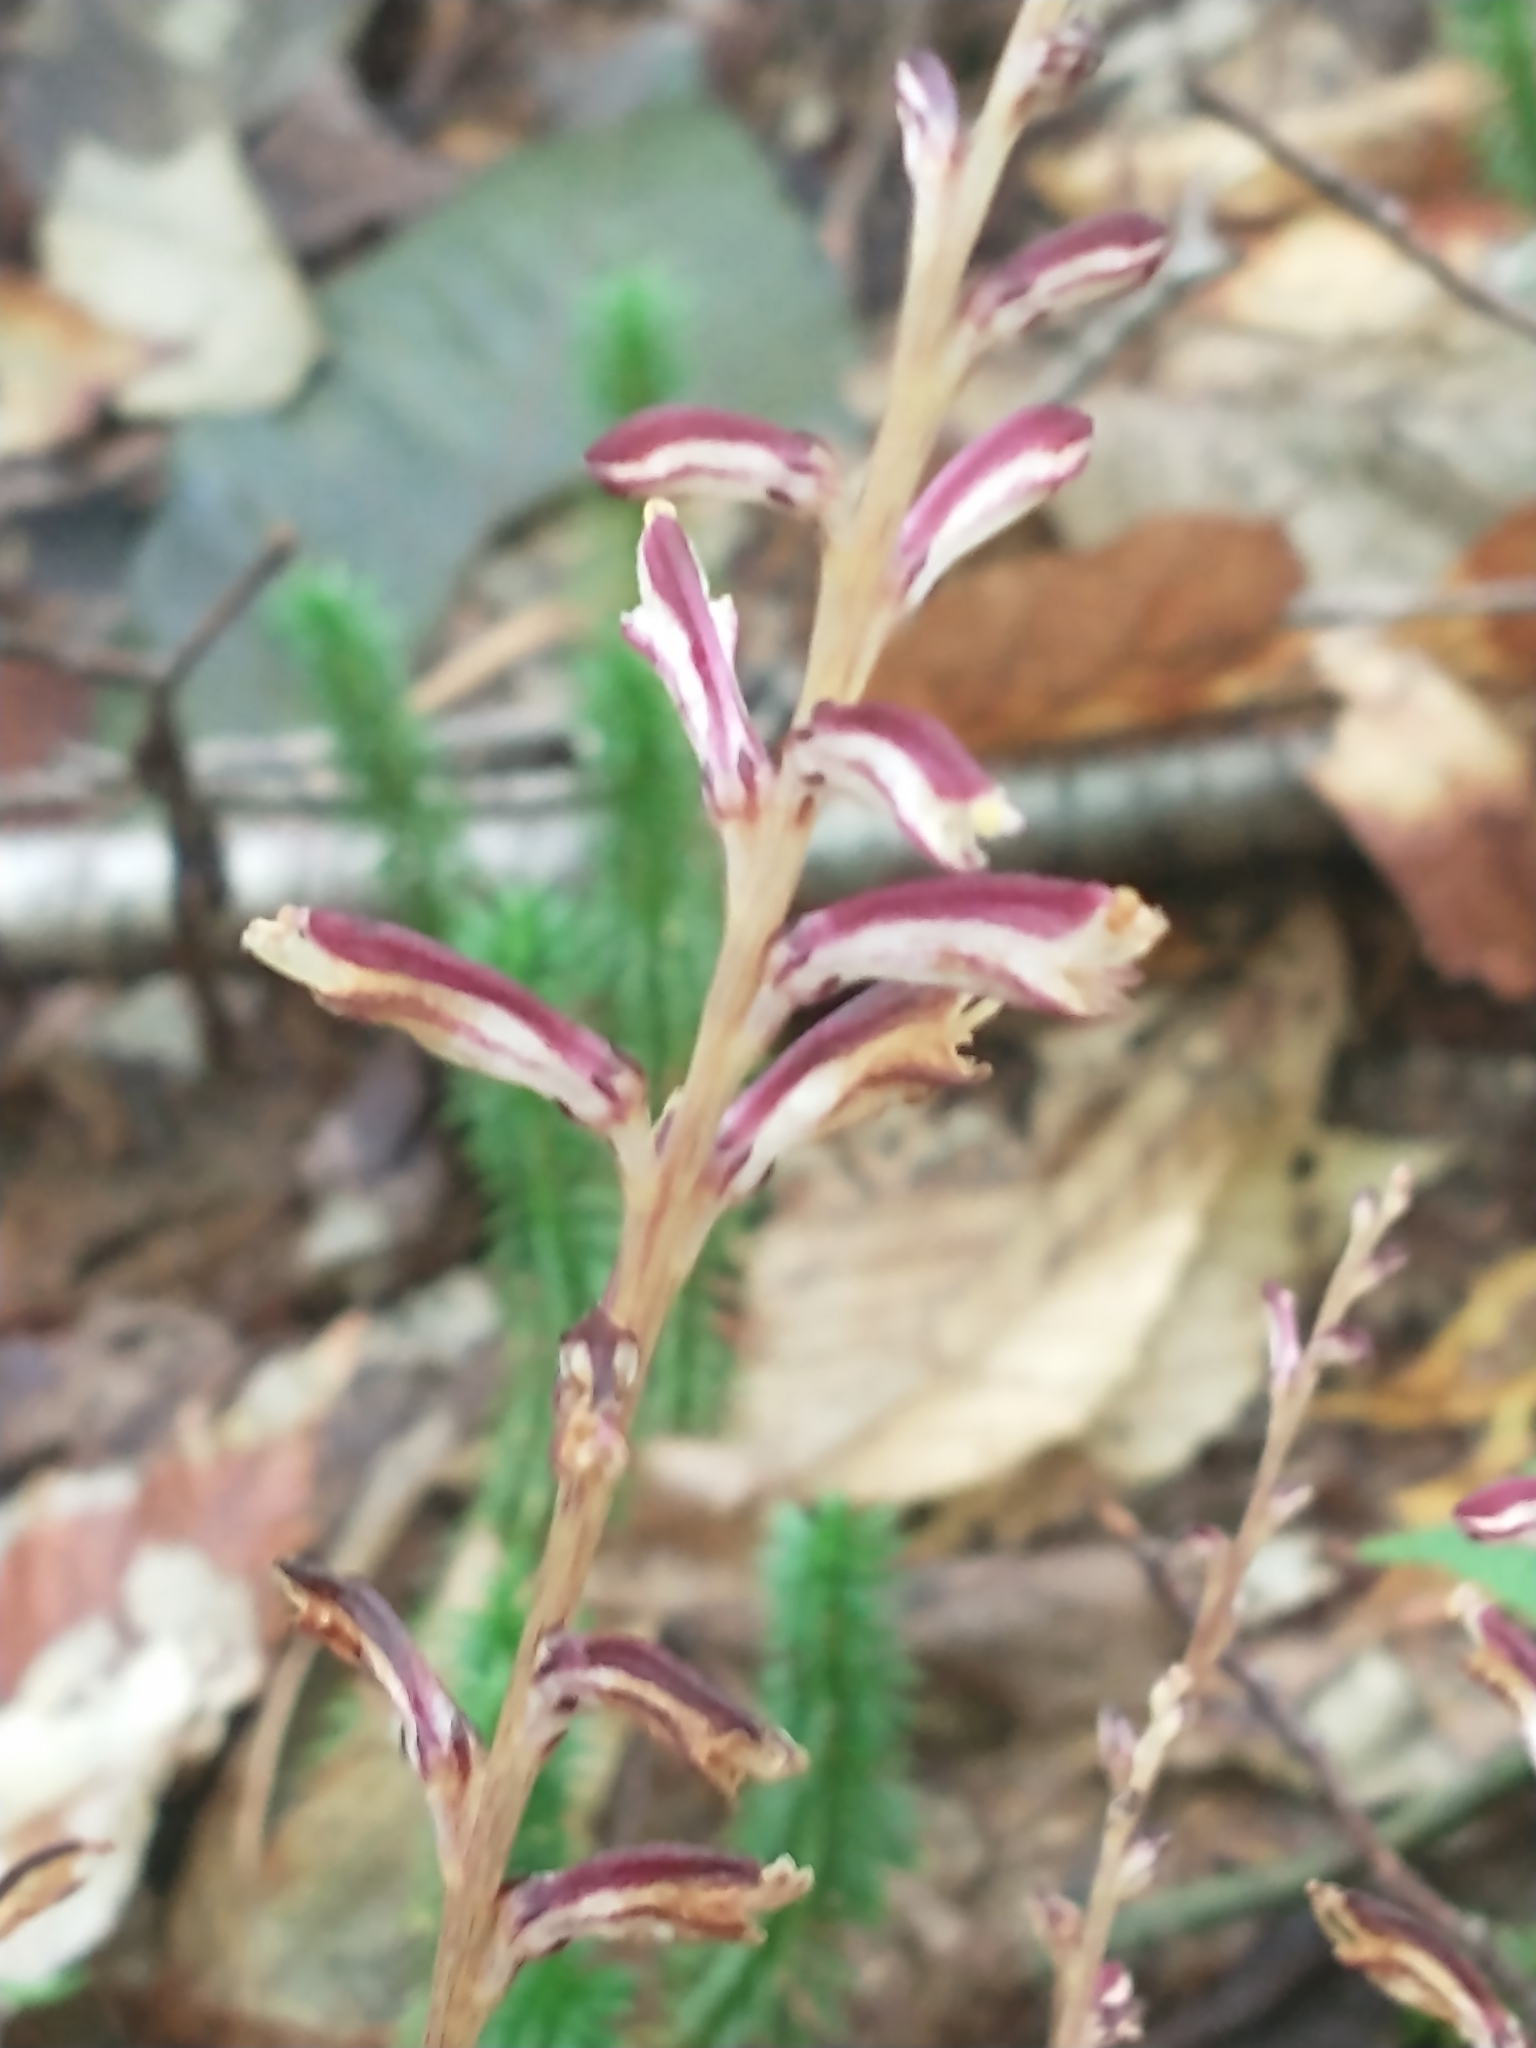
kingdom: Plantae
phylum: Tracheophyta
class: Magnoliopsida
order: Lamiales
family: Orobanchaceae
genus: Epifagus
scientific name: Epifagus virginiana
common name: Beechdrops
